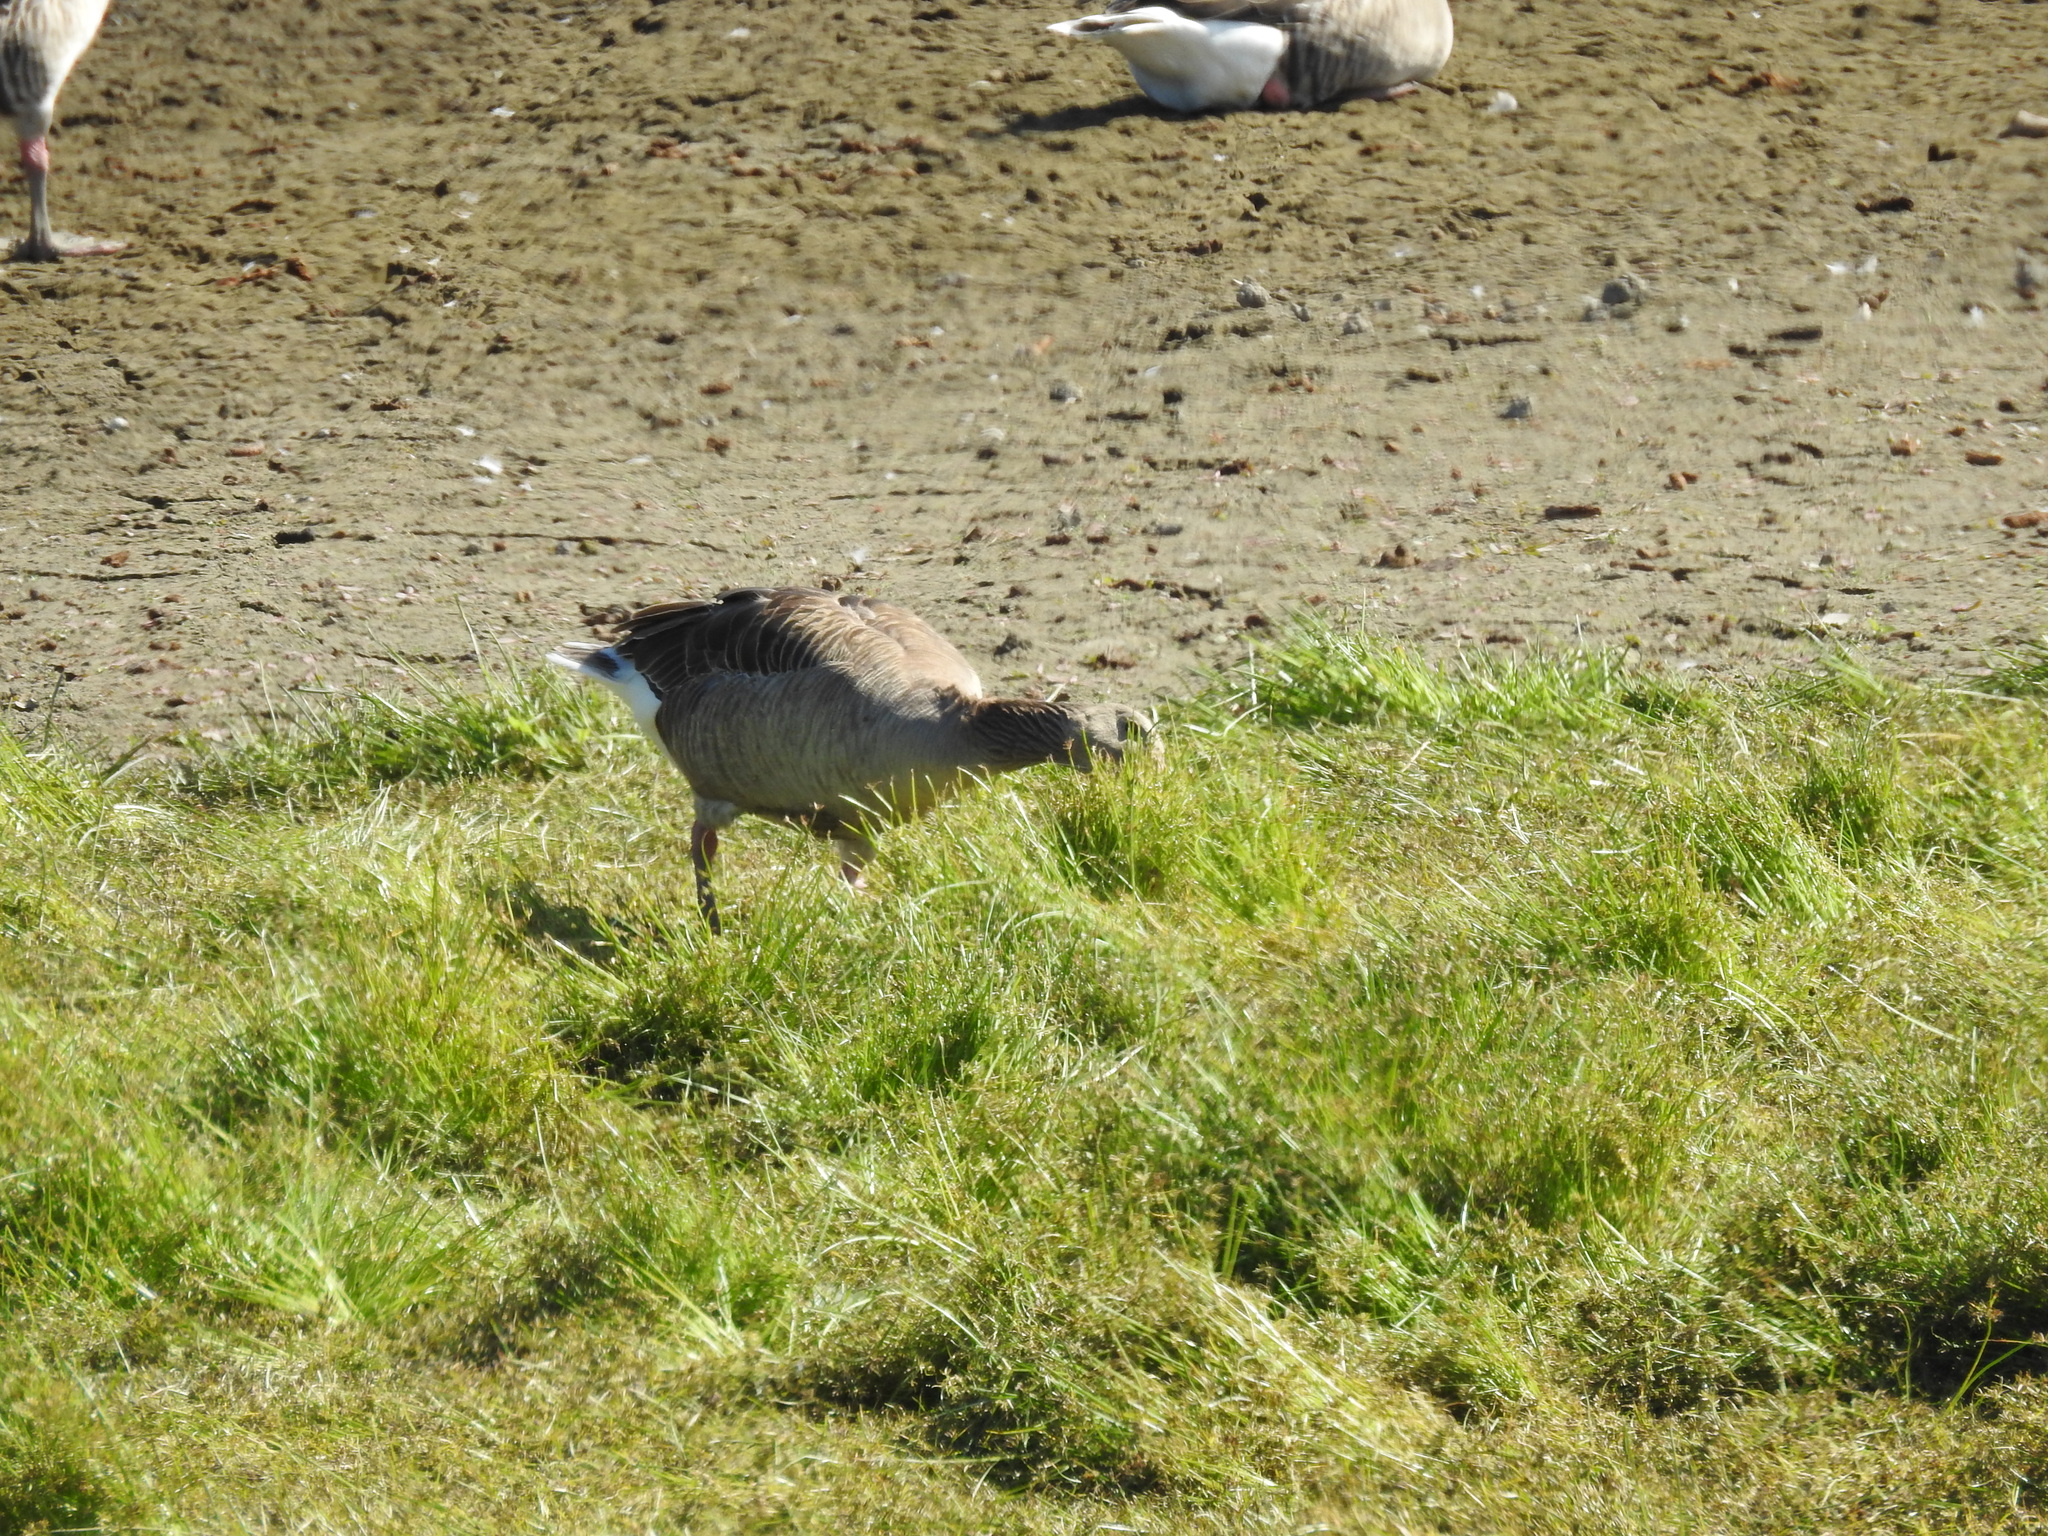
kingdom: Animalia
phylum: Chordata
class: Aves
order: Anseriformes
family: Anatidae
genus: Anser
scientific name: Anser anser
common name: Greylag goose
